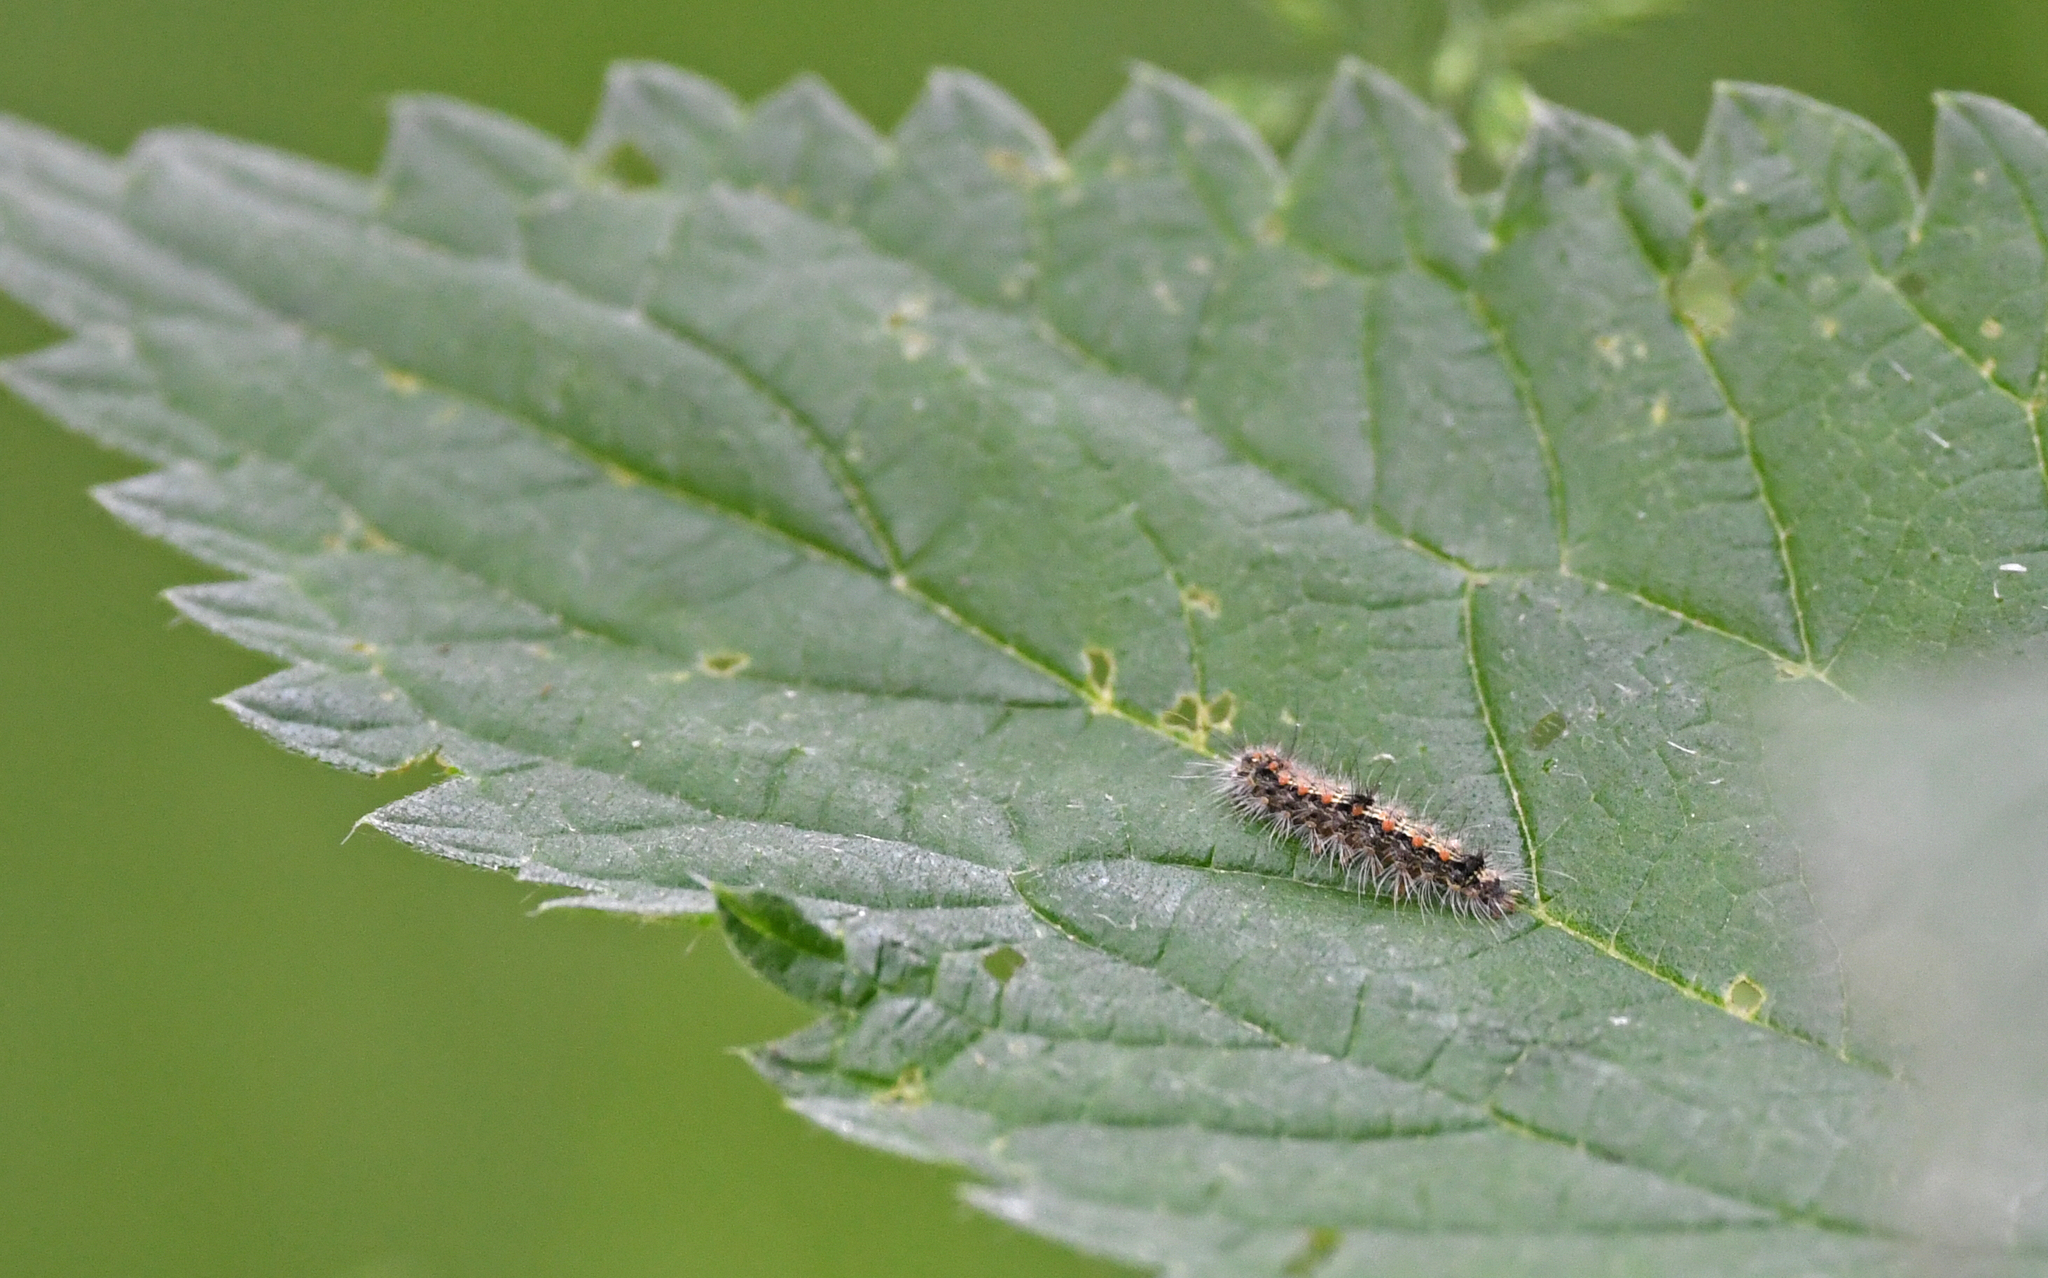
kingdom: Animalia
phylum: Arthropoda
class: Insecta
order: Lepidoptera
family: Erebidae
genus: Lithosia
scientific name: Lithosia quadra
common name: Four-spotted footman
